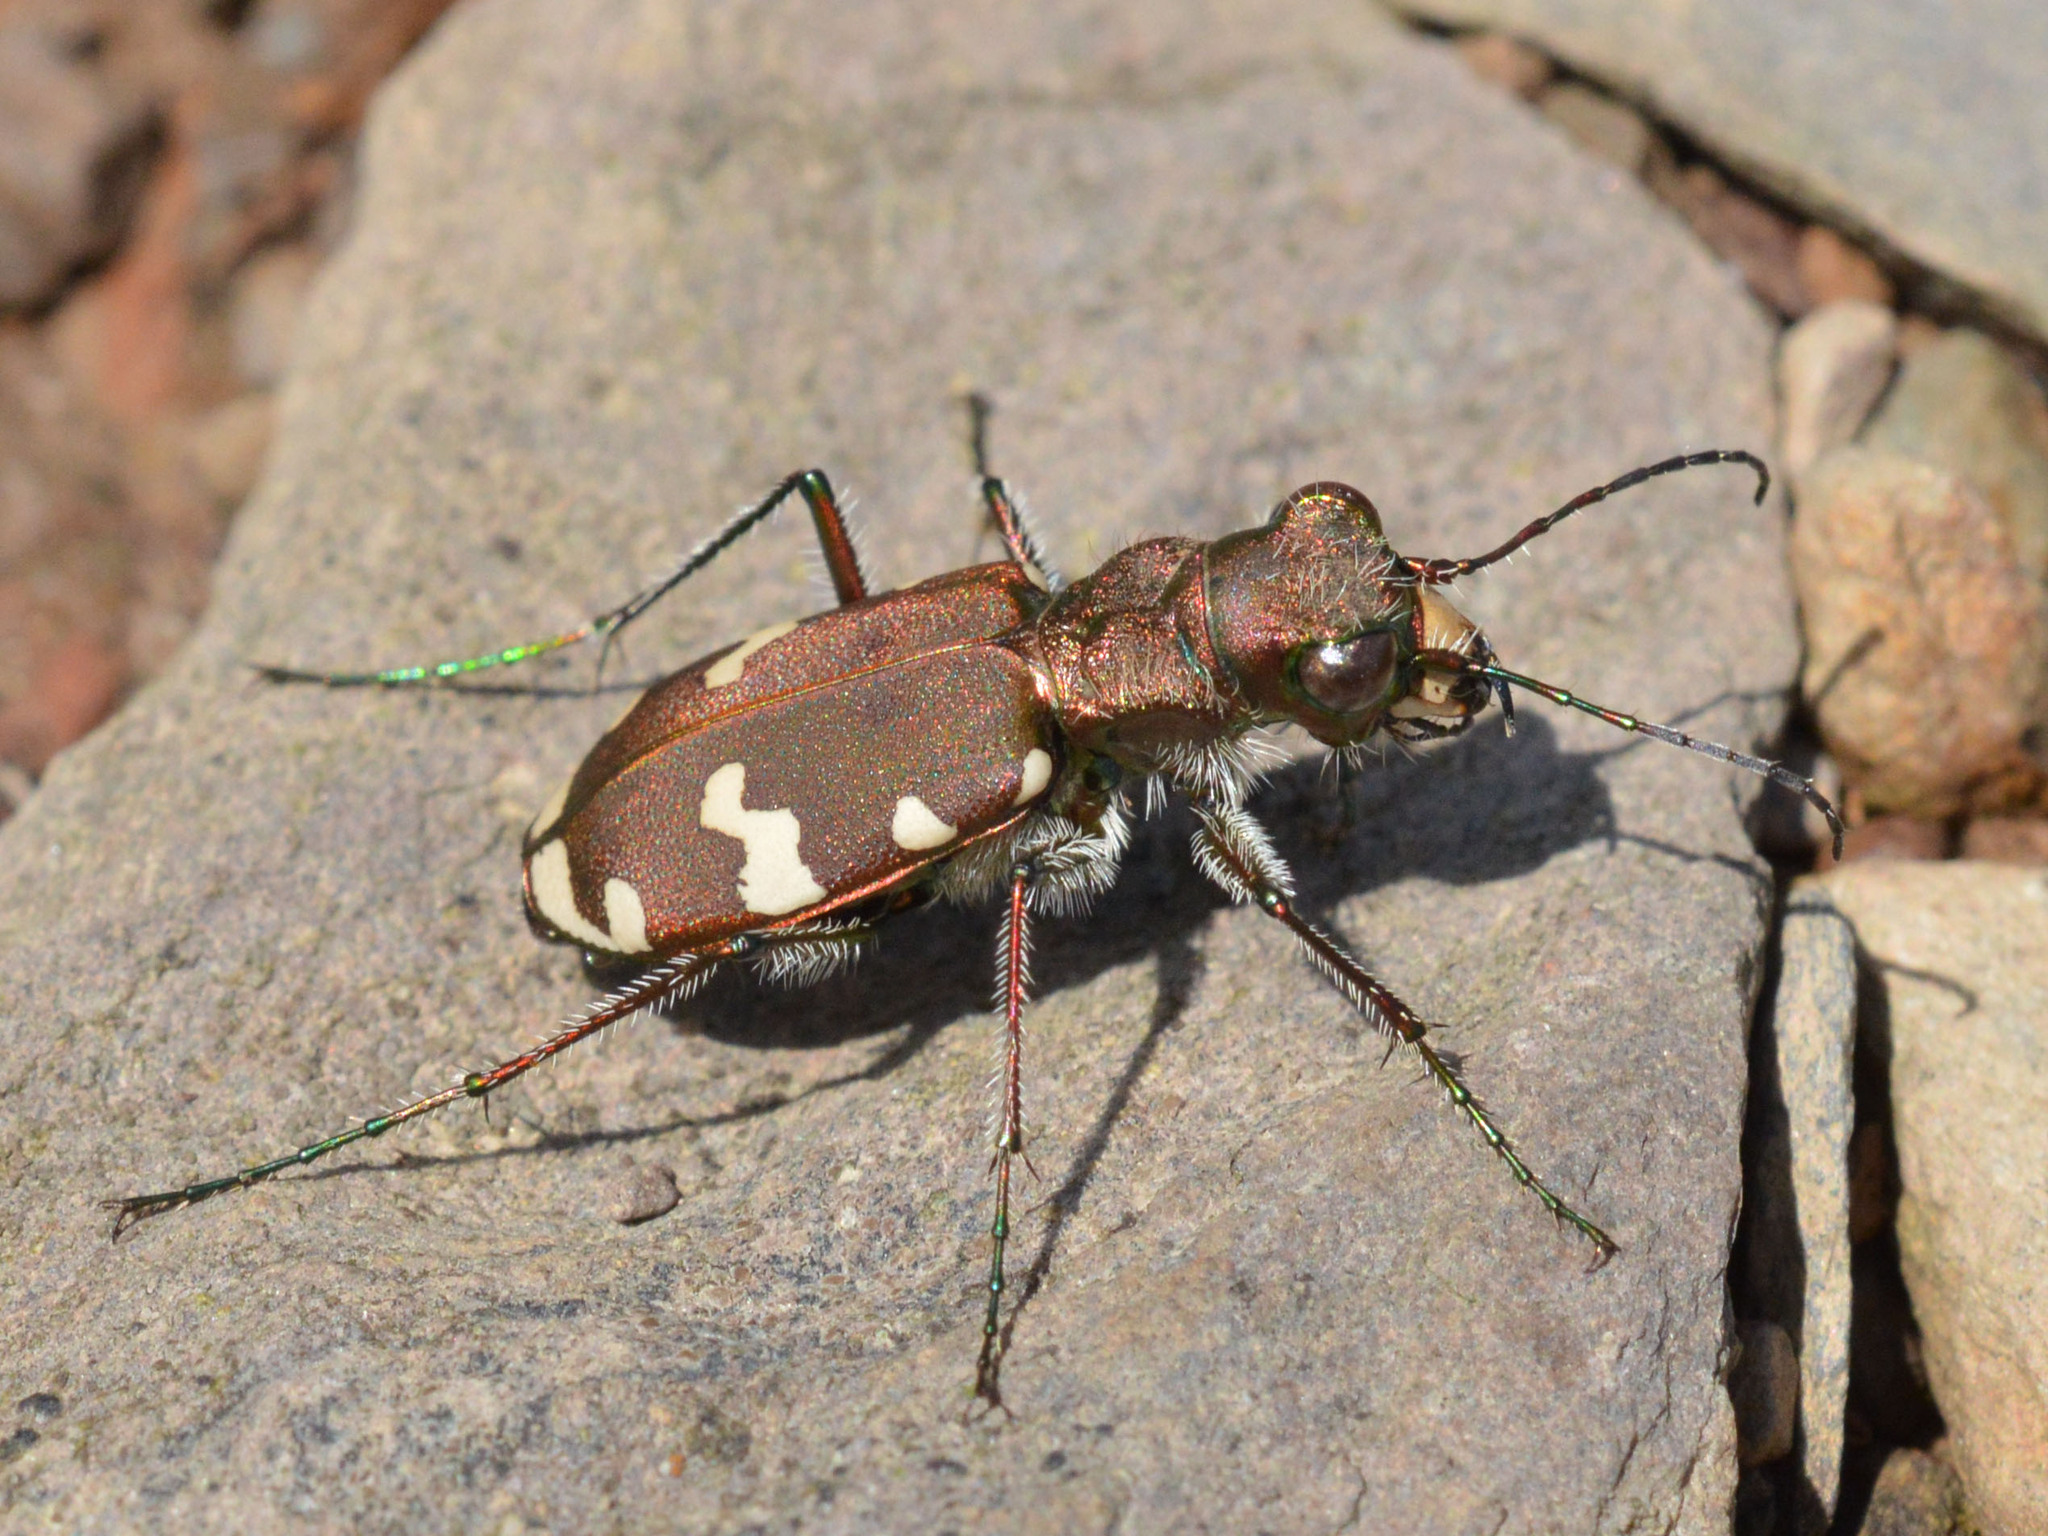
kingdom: Animalia
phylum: Arthropoda
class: Insecta
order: Coleoptera
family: Carabidae
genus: Cicindela
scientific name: Cicindela sylvicola
